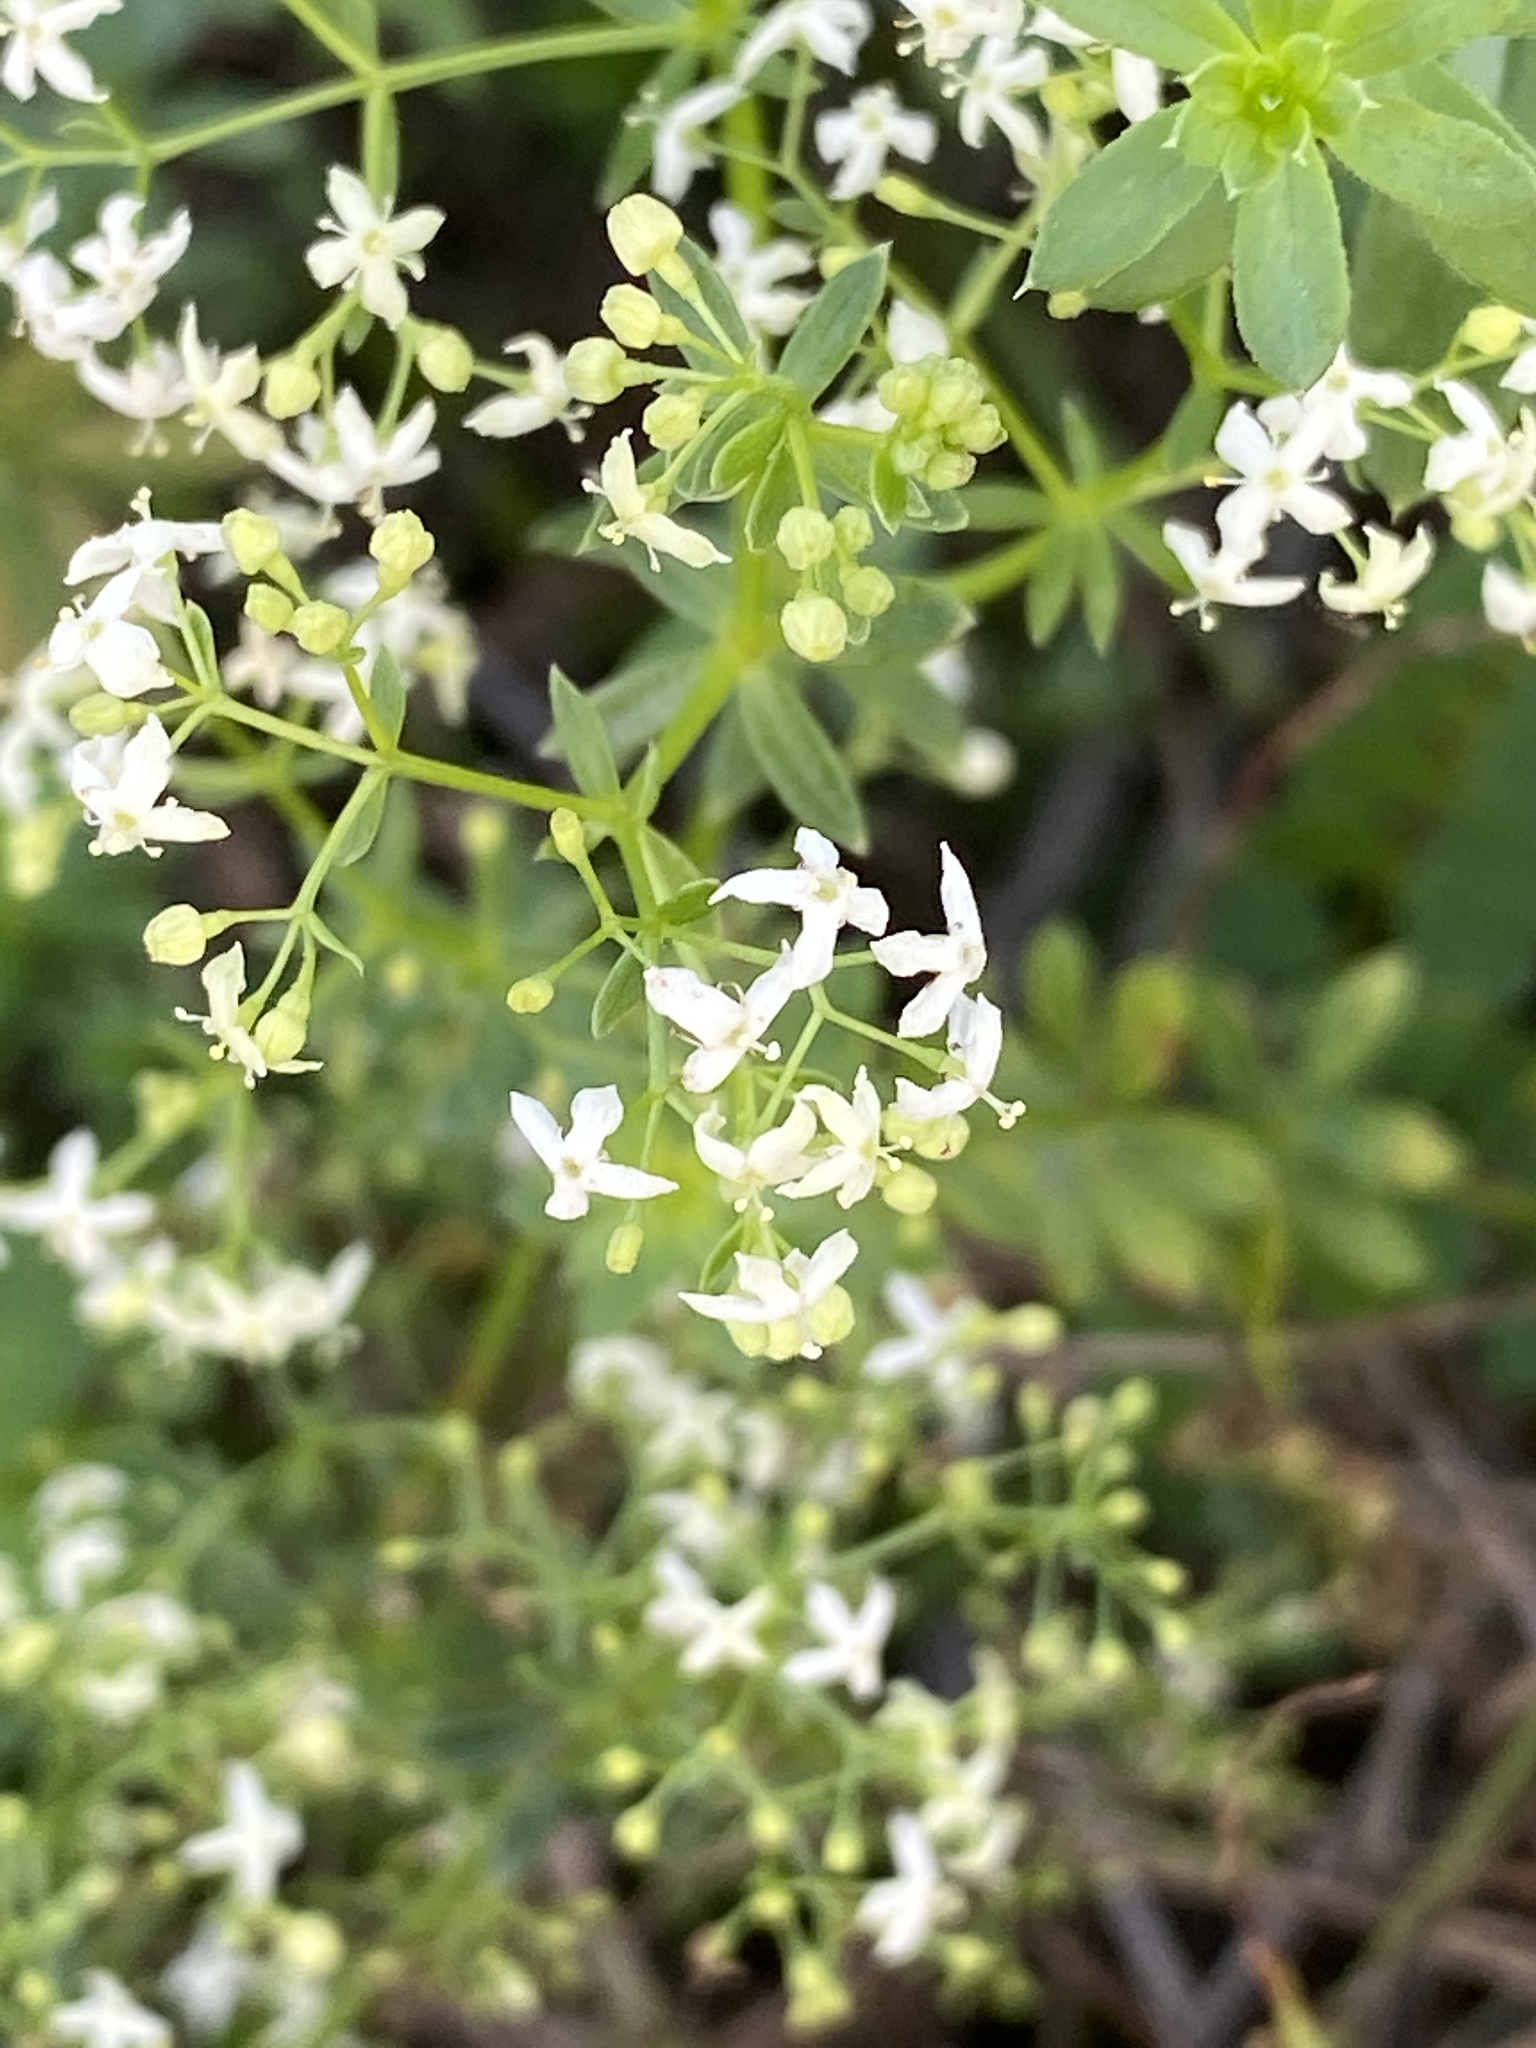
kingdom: Plantae
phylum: Tracheophyta
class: Magnoliopsida
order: Gentianales
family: Rubiaceae
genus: Galium
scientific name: Galium mollugo
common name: Hedge bedstraw
